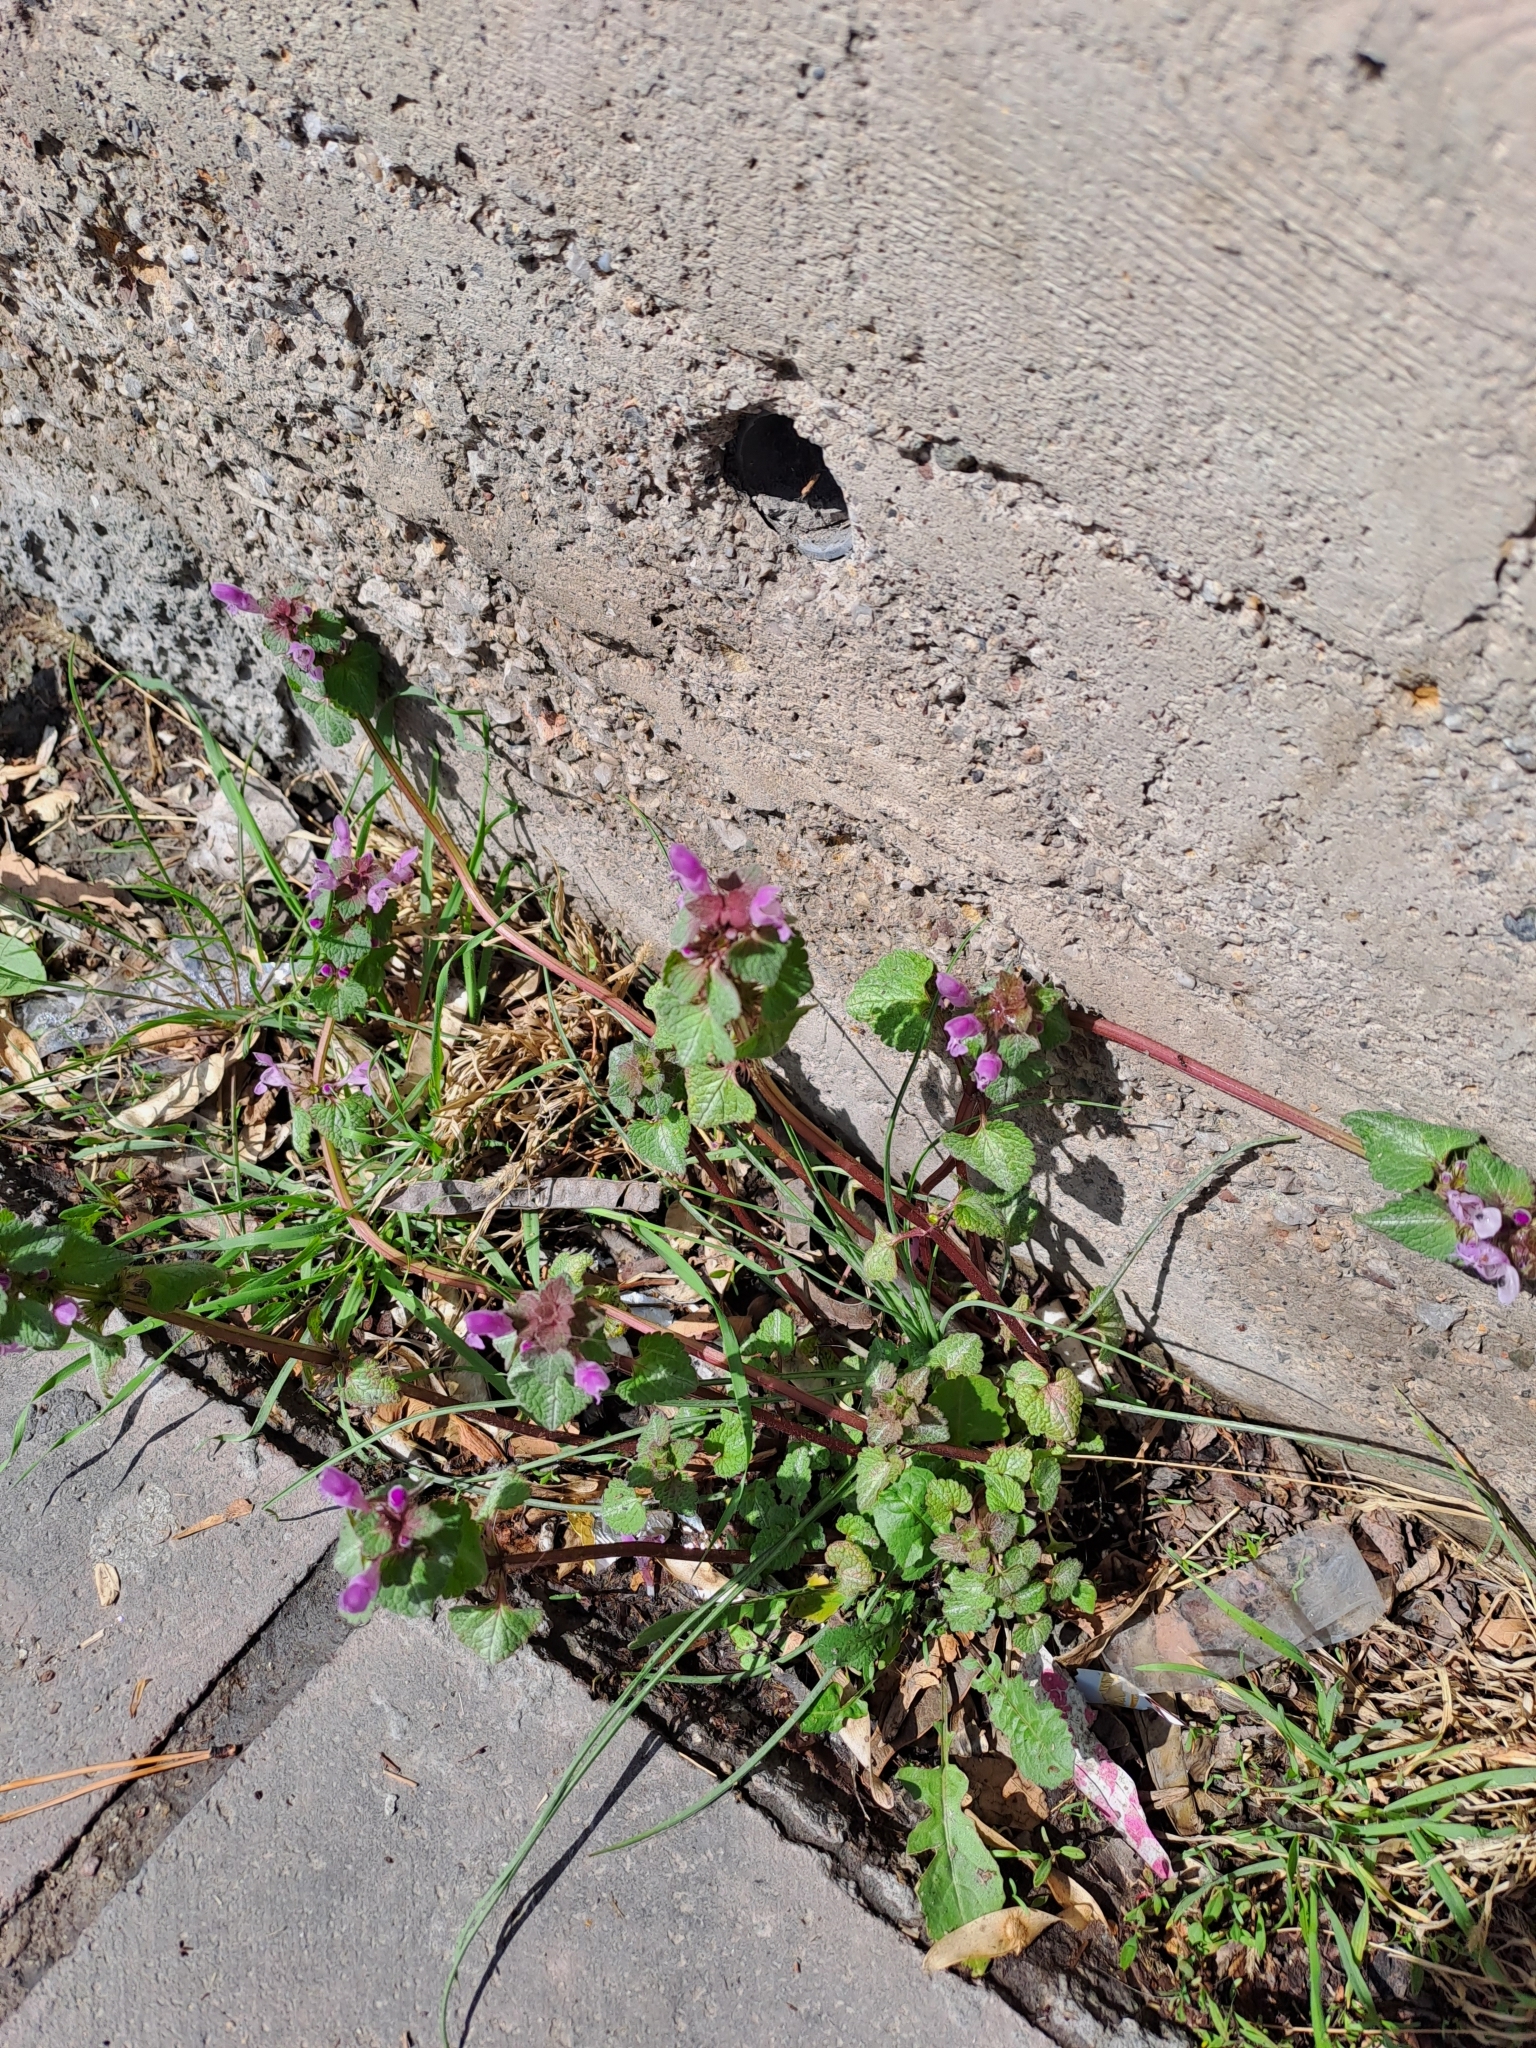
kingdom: Plantae
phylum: Tracheophyta
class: Magnoliopsida
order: Lamiales
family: Lamiaceae
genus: Lamium
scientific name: Lamium purpureum
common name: Red dead-nettle
